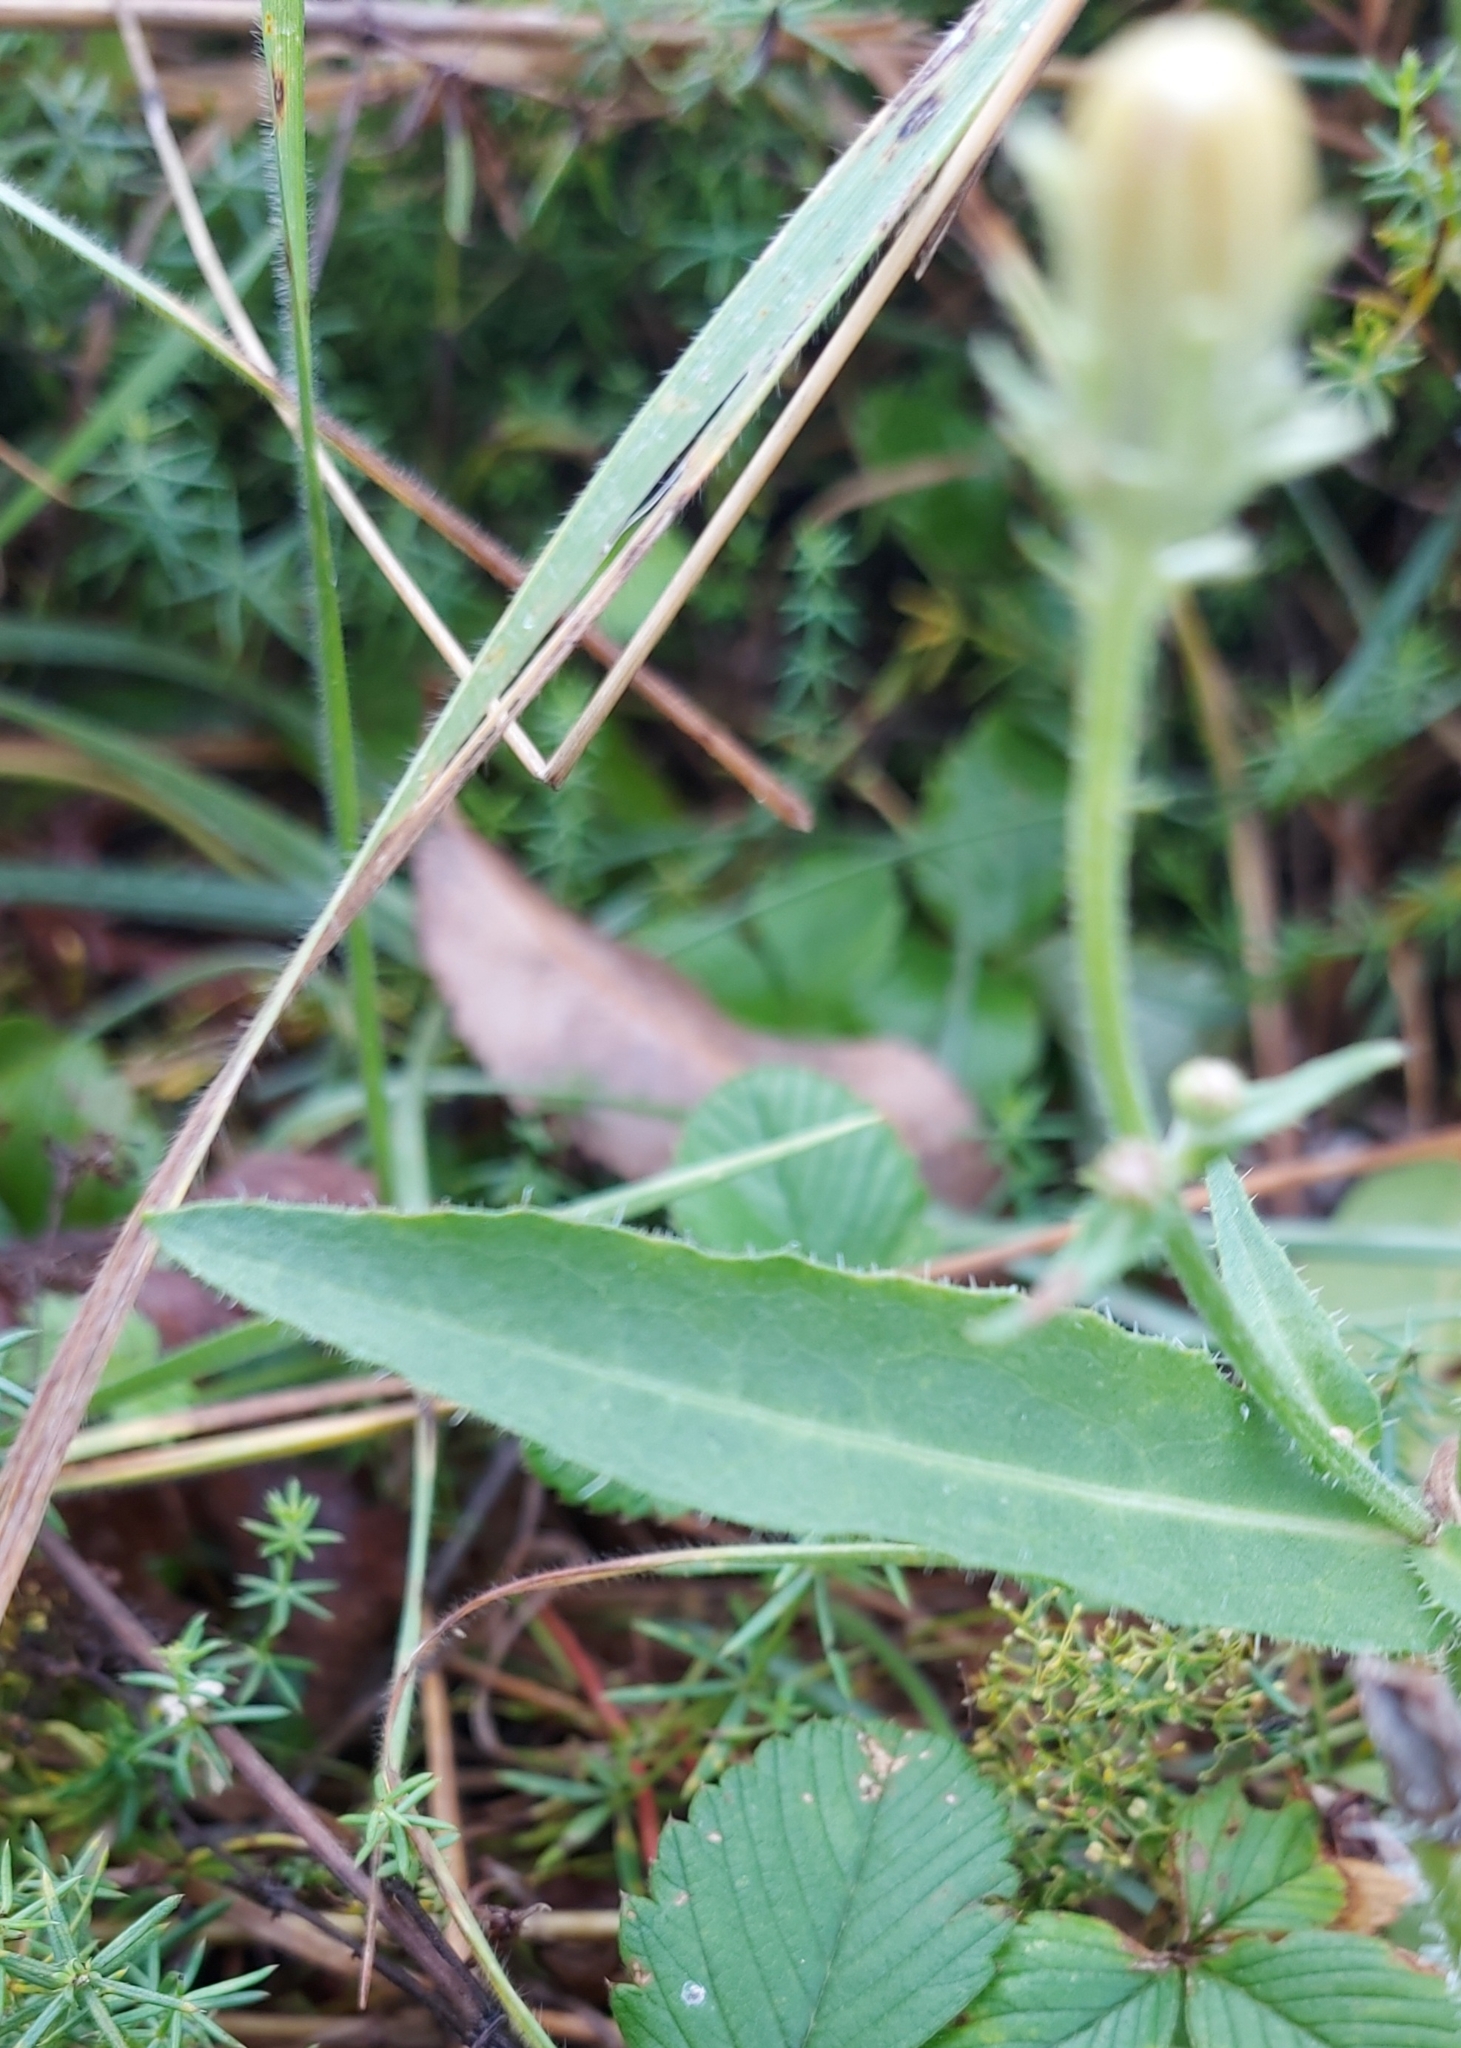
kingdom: Plantae
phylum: Tracheophyta
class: Magnoliopsida
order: Asterales
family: Asteraceae
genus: Picris
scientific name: Picris hieracioides
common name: Hawkweed oxtongue
